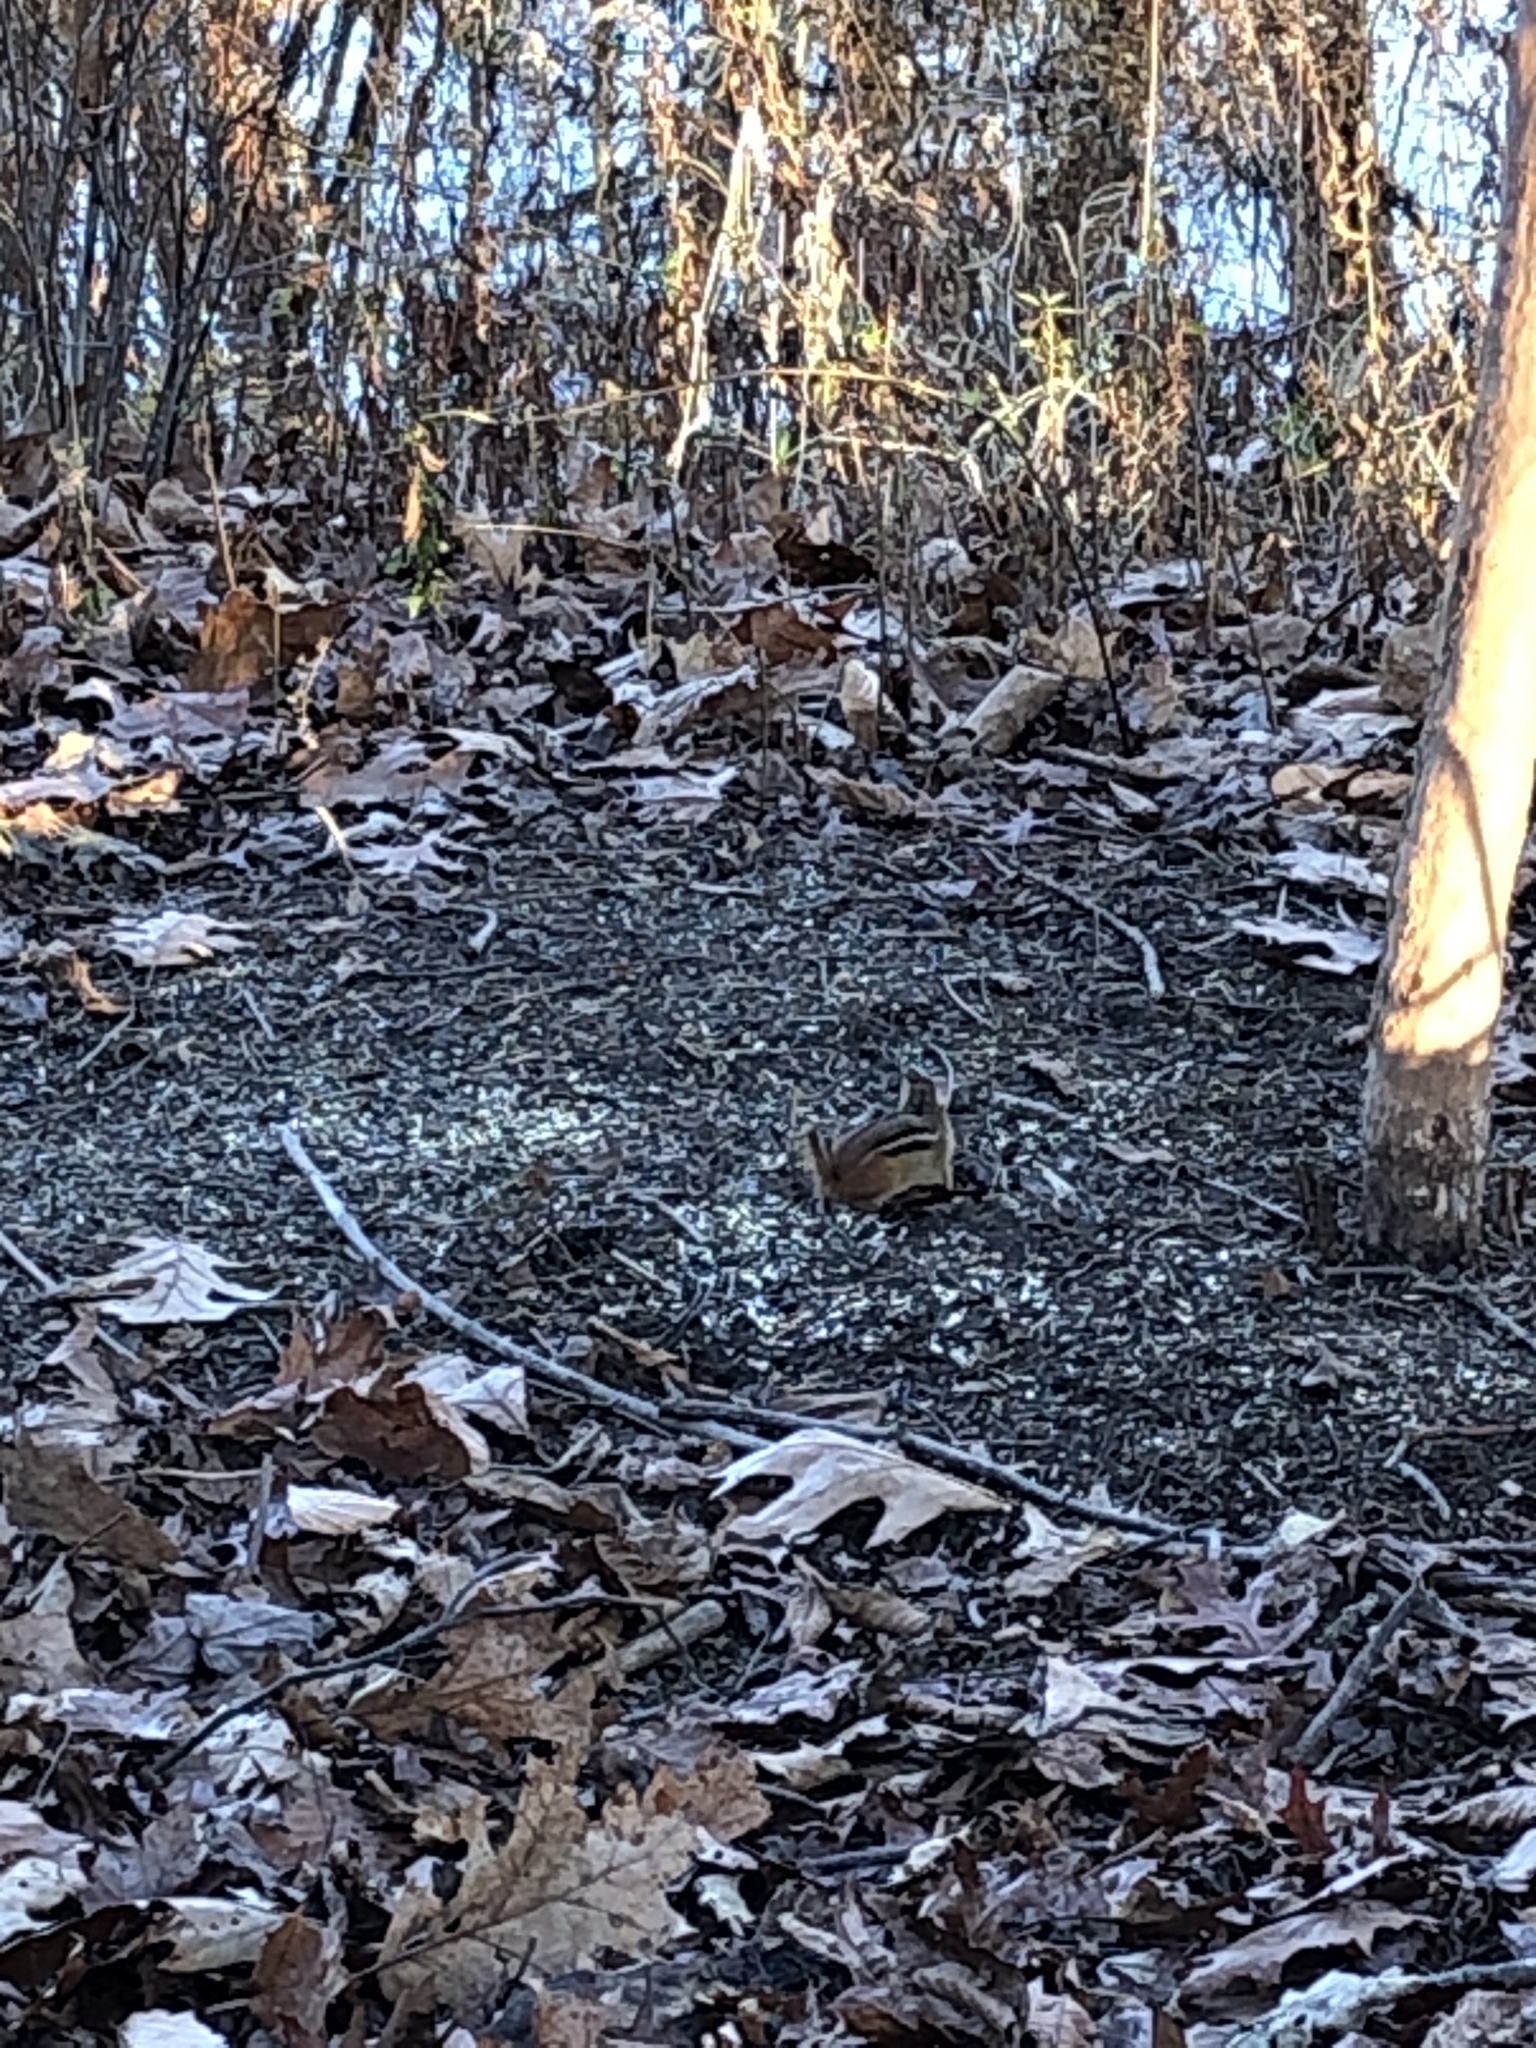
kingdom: Animalia
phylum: Chordata
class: Mammalia
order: Rodentia
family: Sciuridae
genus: Tamias
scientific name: Tamias striatus
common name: Eastern chipmunk
